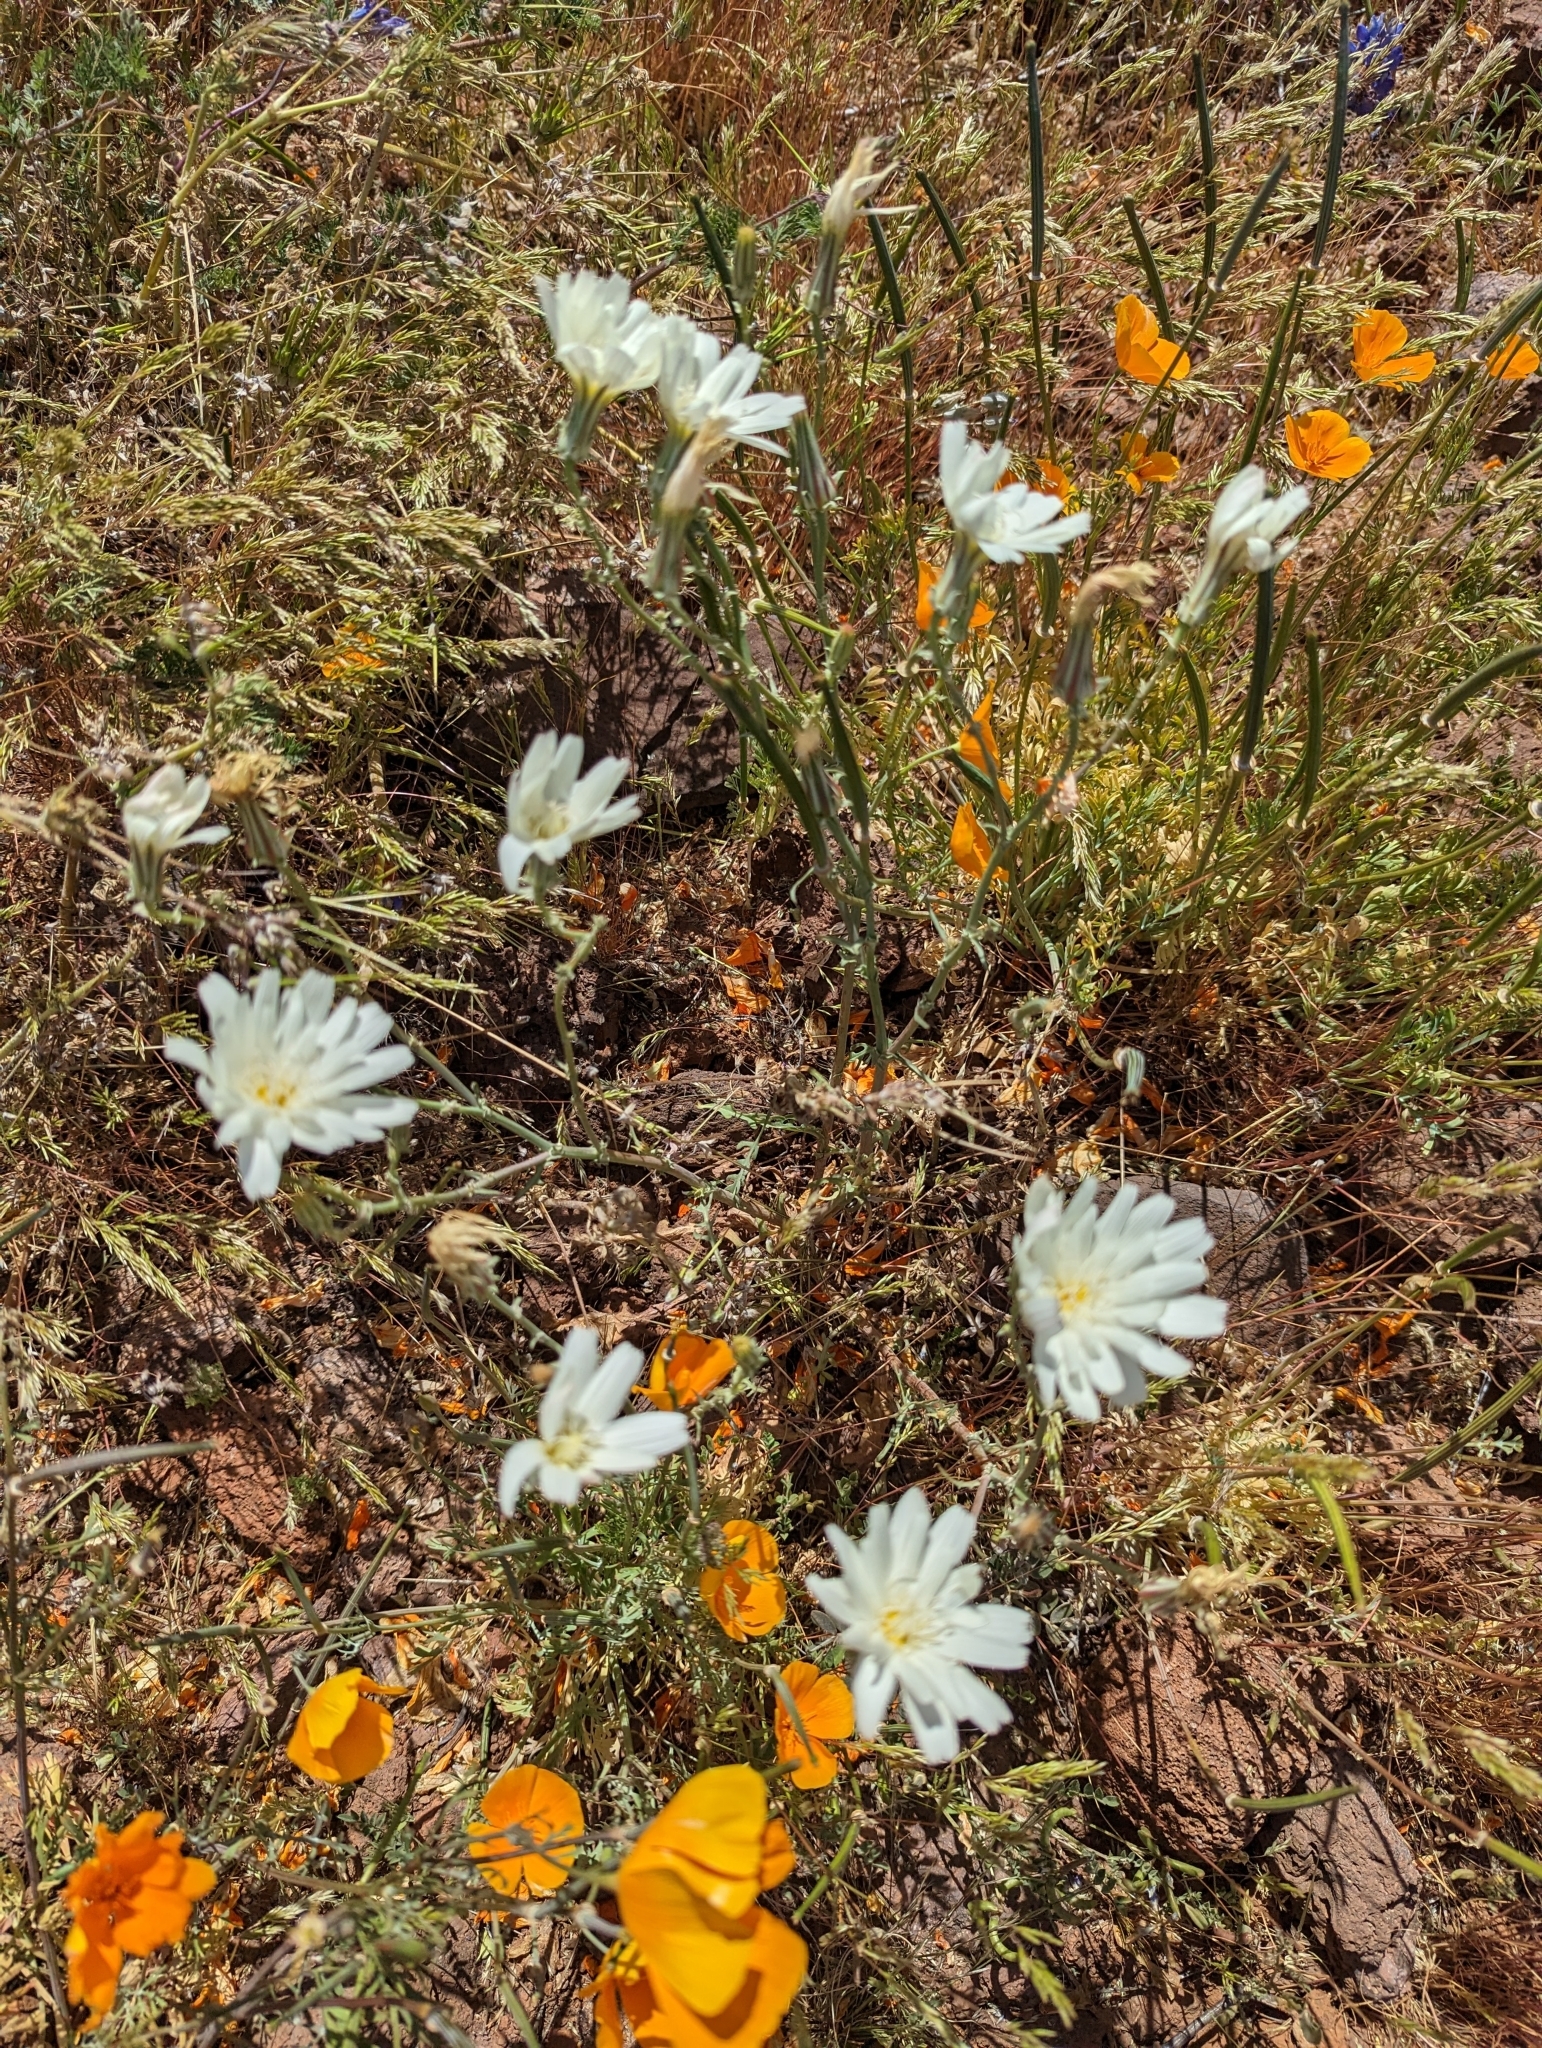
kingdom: Plantae
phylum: Tracheophyta
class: Magnoliopsida
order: Asterales
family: Asteraceae
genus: Rafinesquia
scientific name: Rafinesquia neomexicana
